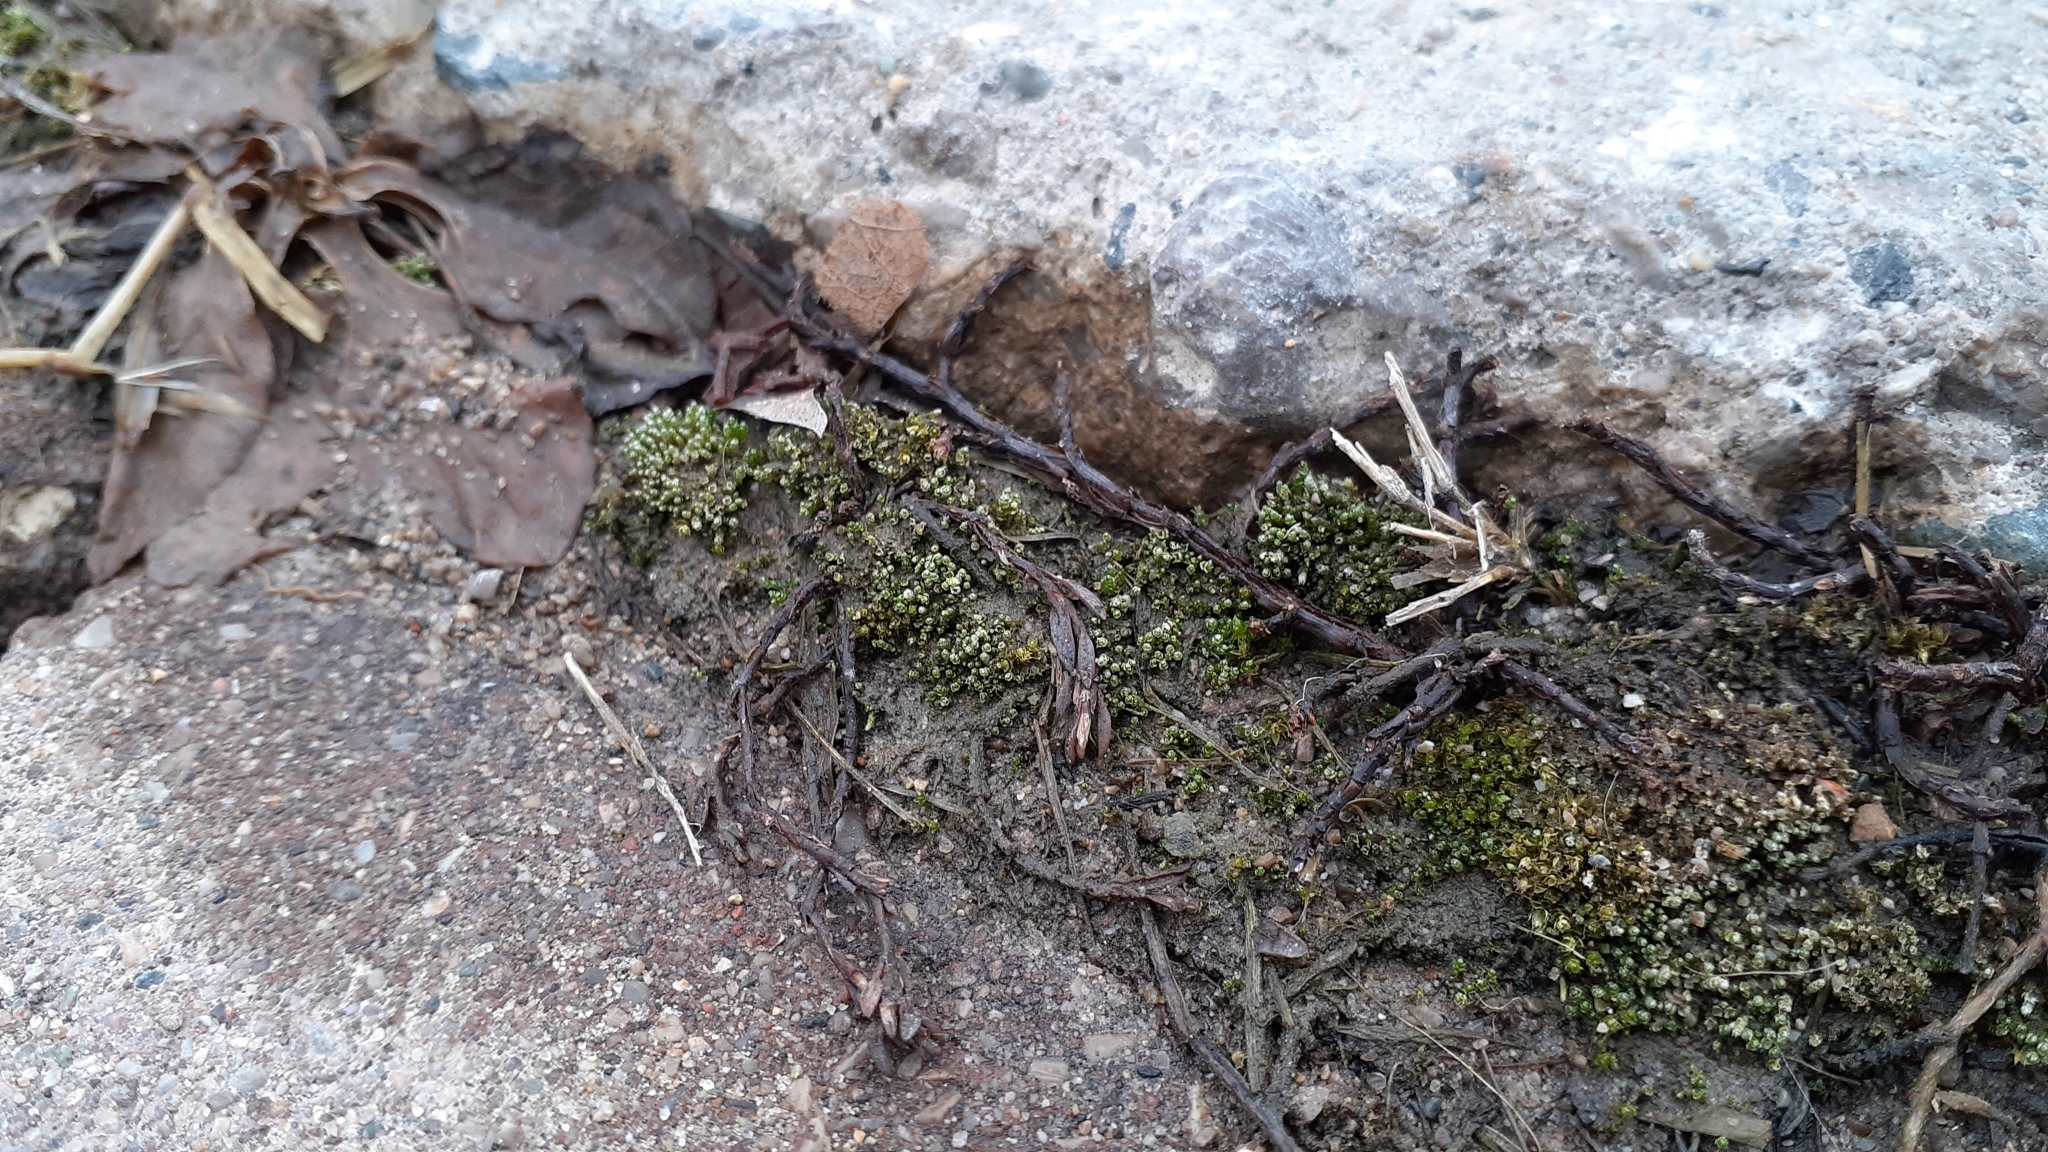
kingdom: Plantae
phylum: Bryophyta
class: Bryopsida
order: Bryales
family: Bryaceae
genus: Bryum
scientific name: Bryum argenteum
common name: Silver-moss
